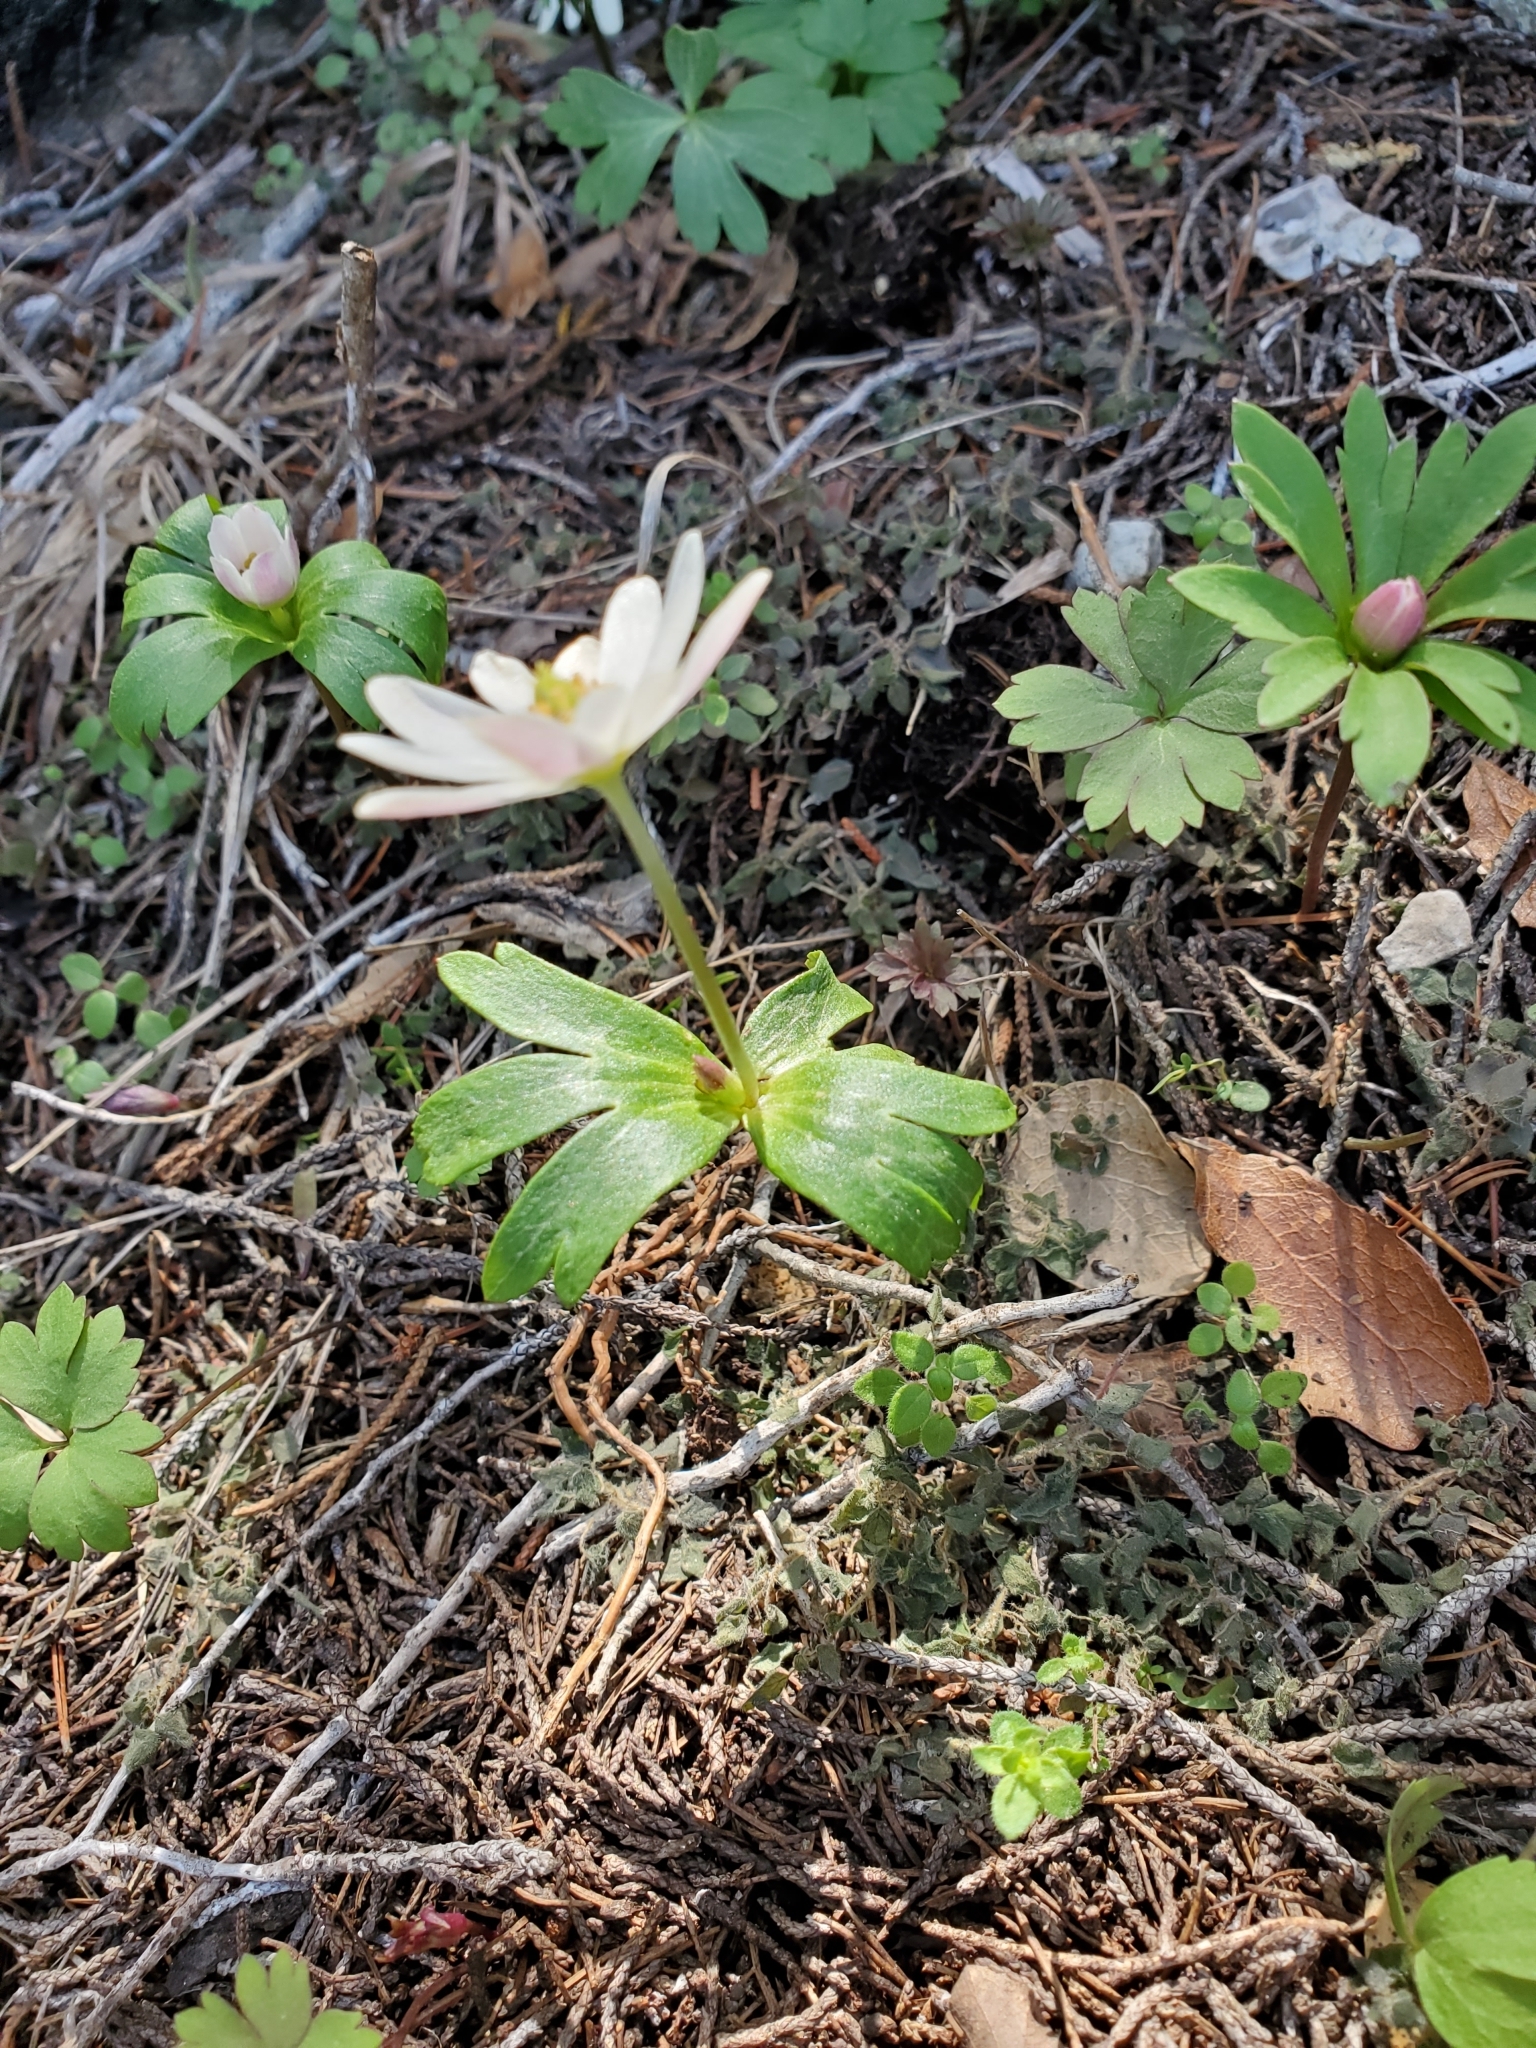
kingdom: Plantae
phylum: Tracheophyta
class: Magnoliopsida
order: Ranunculales
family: Ranunculaceae
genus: Anemone
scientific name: Anemone edwardsiana
